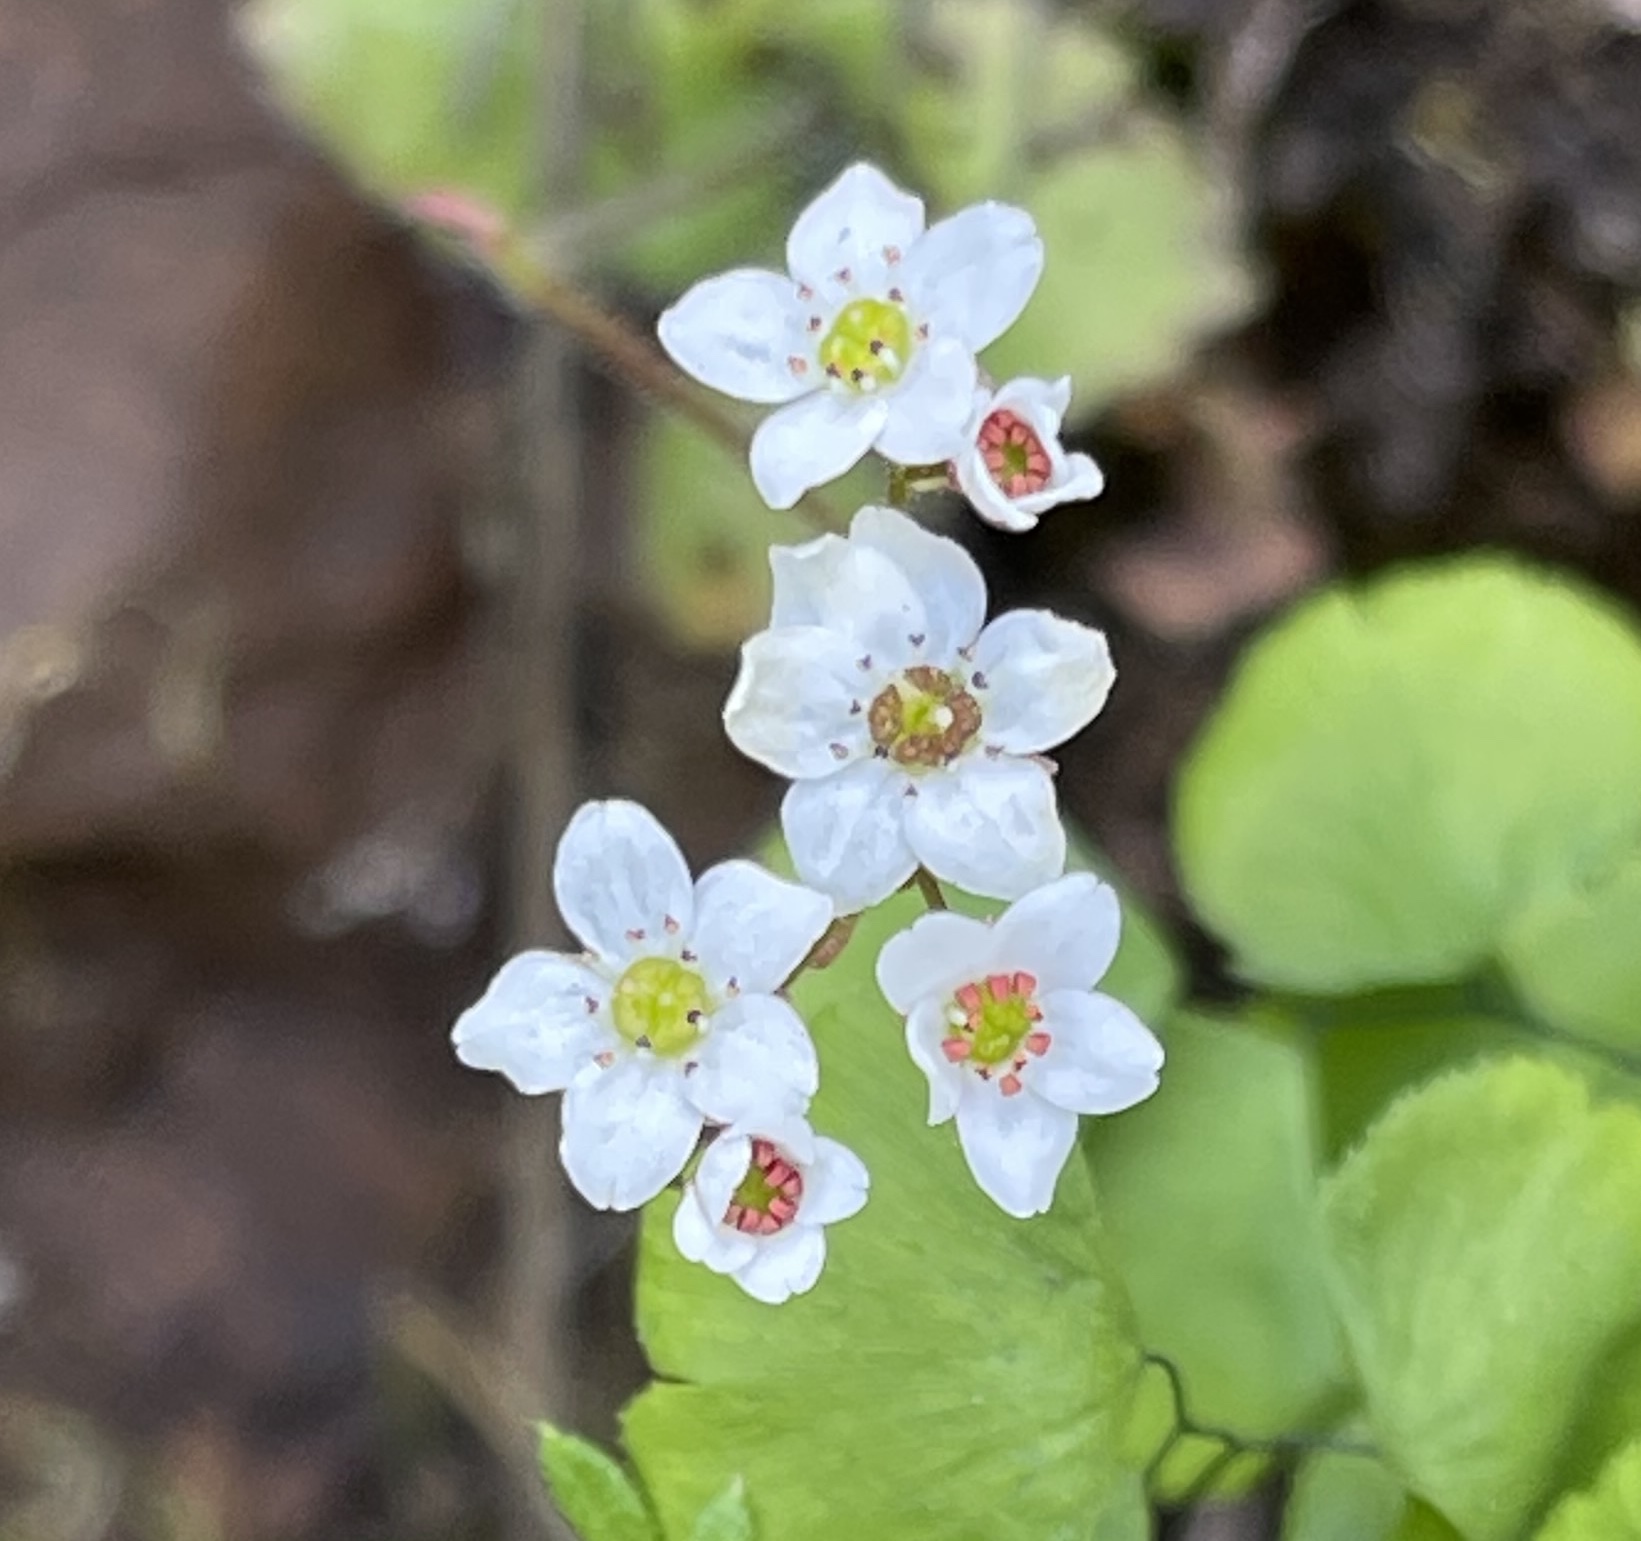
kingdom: Plantae
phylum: Tracheophyta
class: Magnoliopsida
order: Saxifragales
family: Saxifragaceae
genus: Micranthes
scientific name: Micranthes californica
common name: California saxifrage
